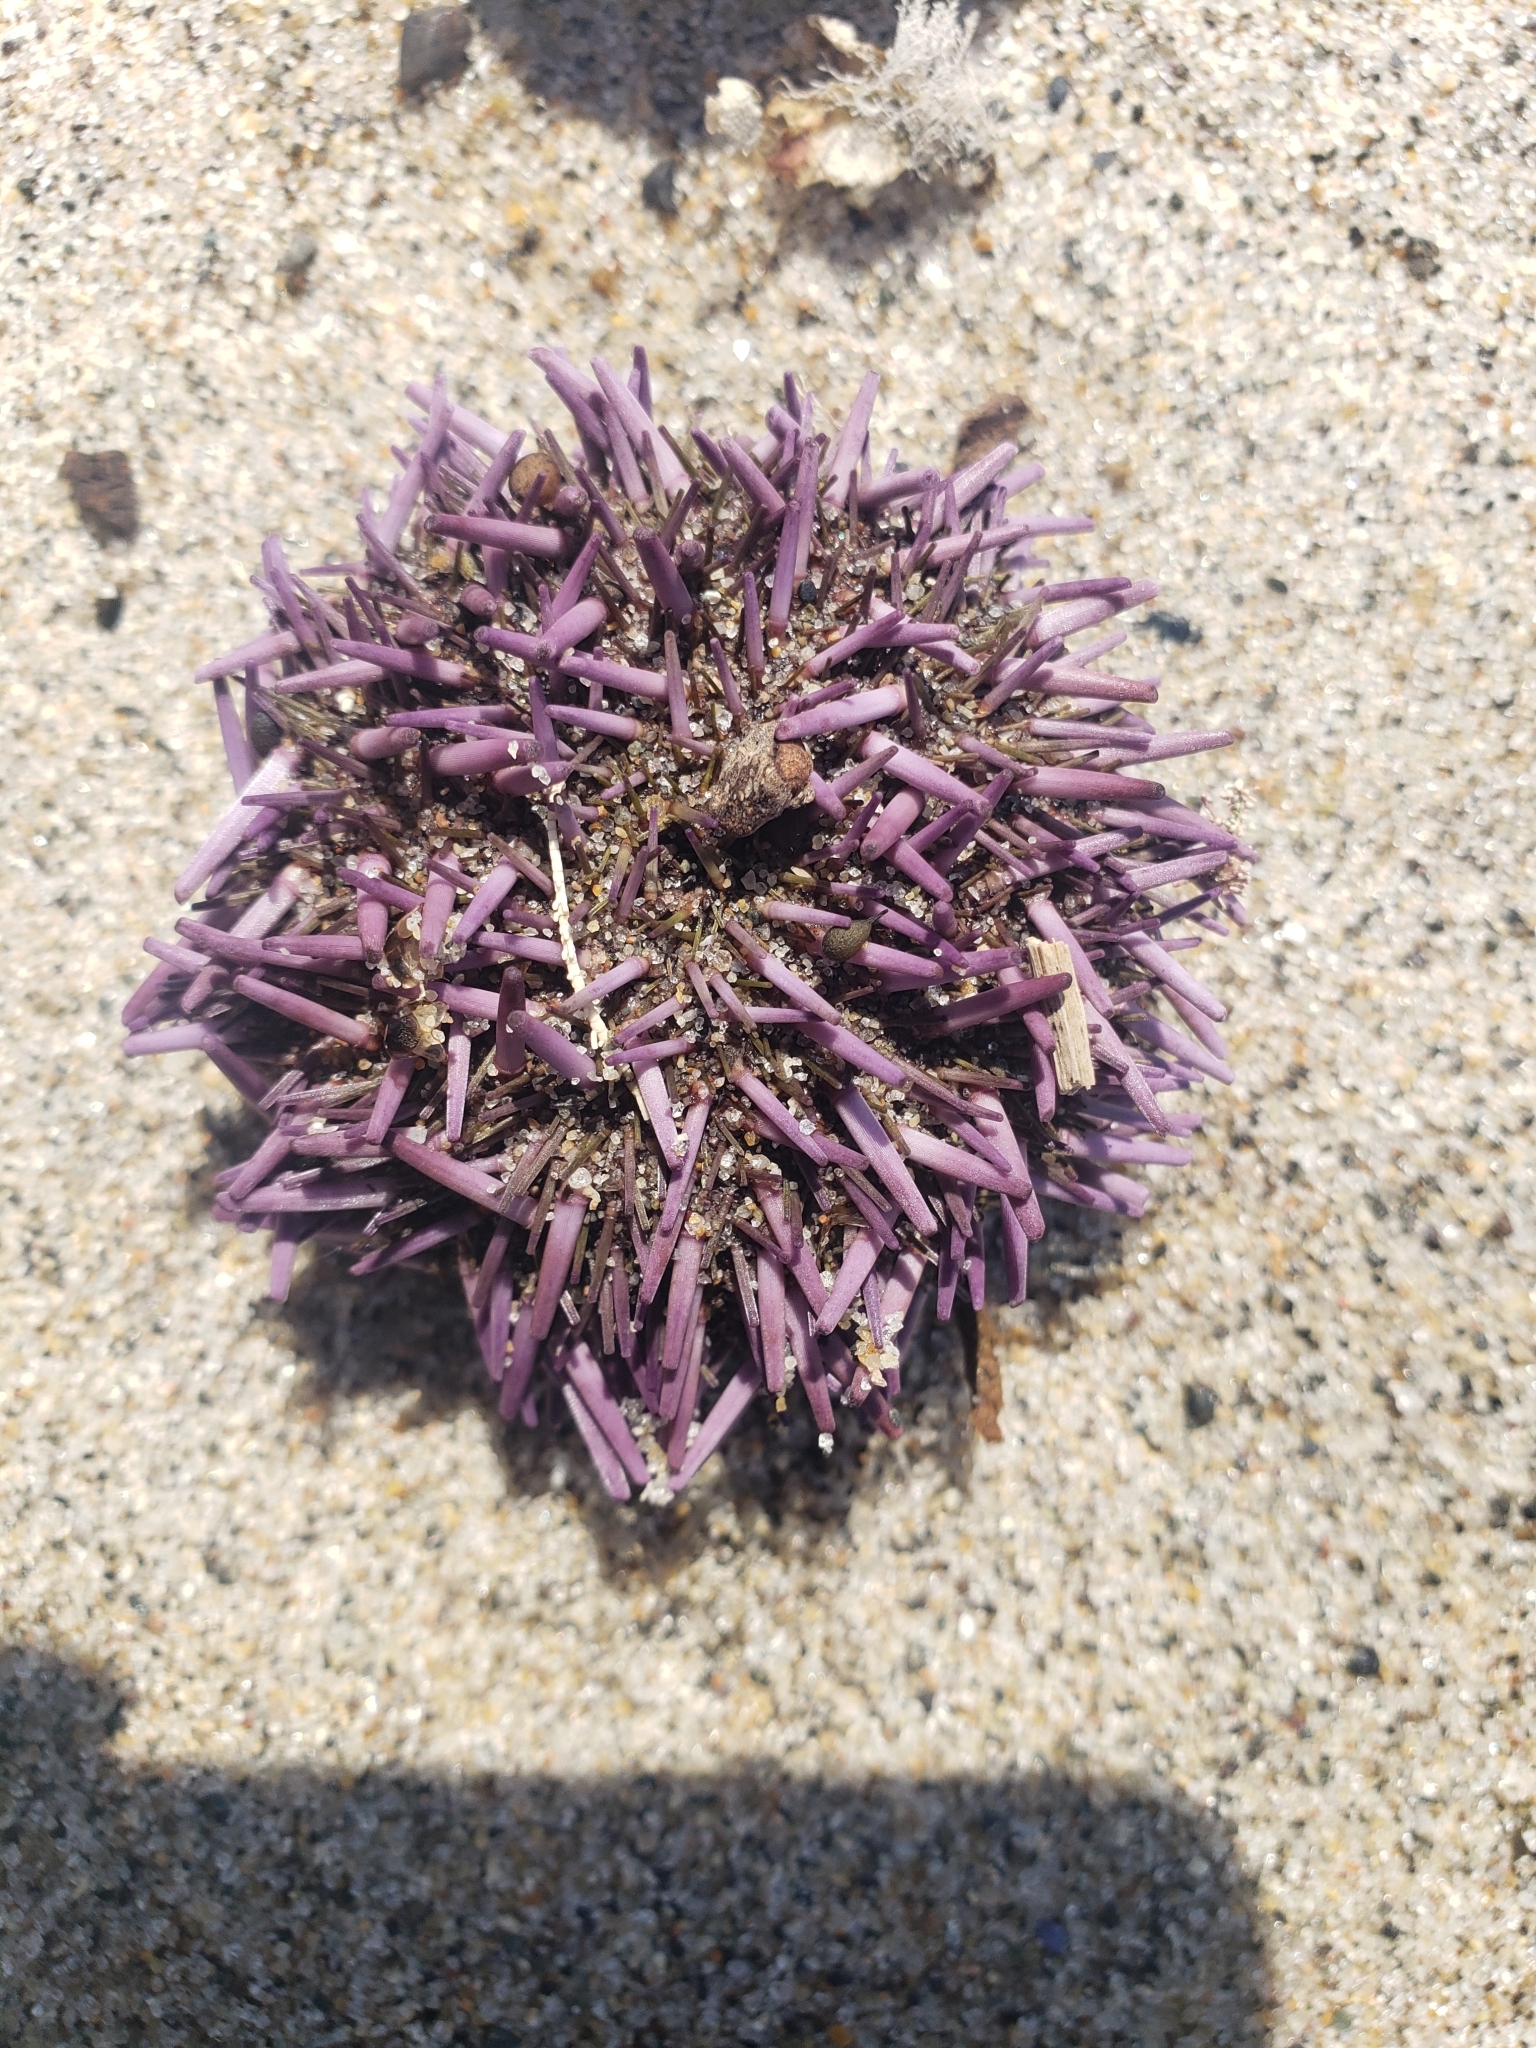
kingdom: Animalia
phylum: Echinodermata
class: Echinoidea
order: Camarodonta
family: Strongylocentrotidae
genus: Strongylocentrotus
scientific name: Strongylocentrotus purpuratus
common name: Purple sea urchin
